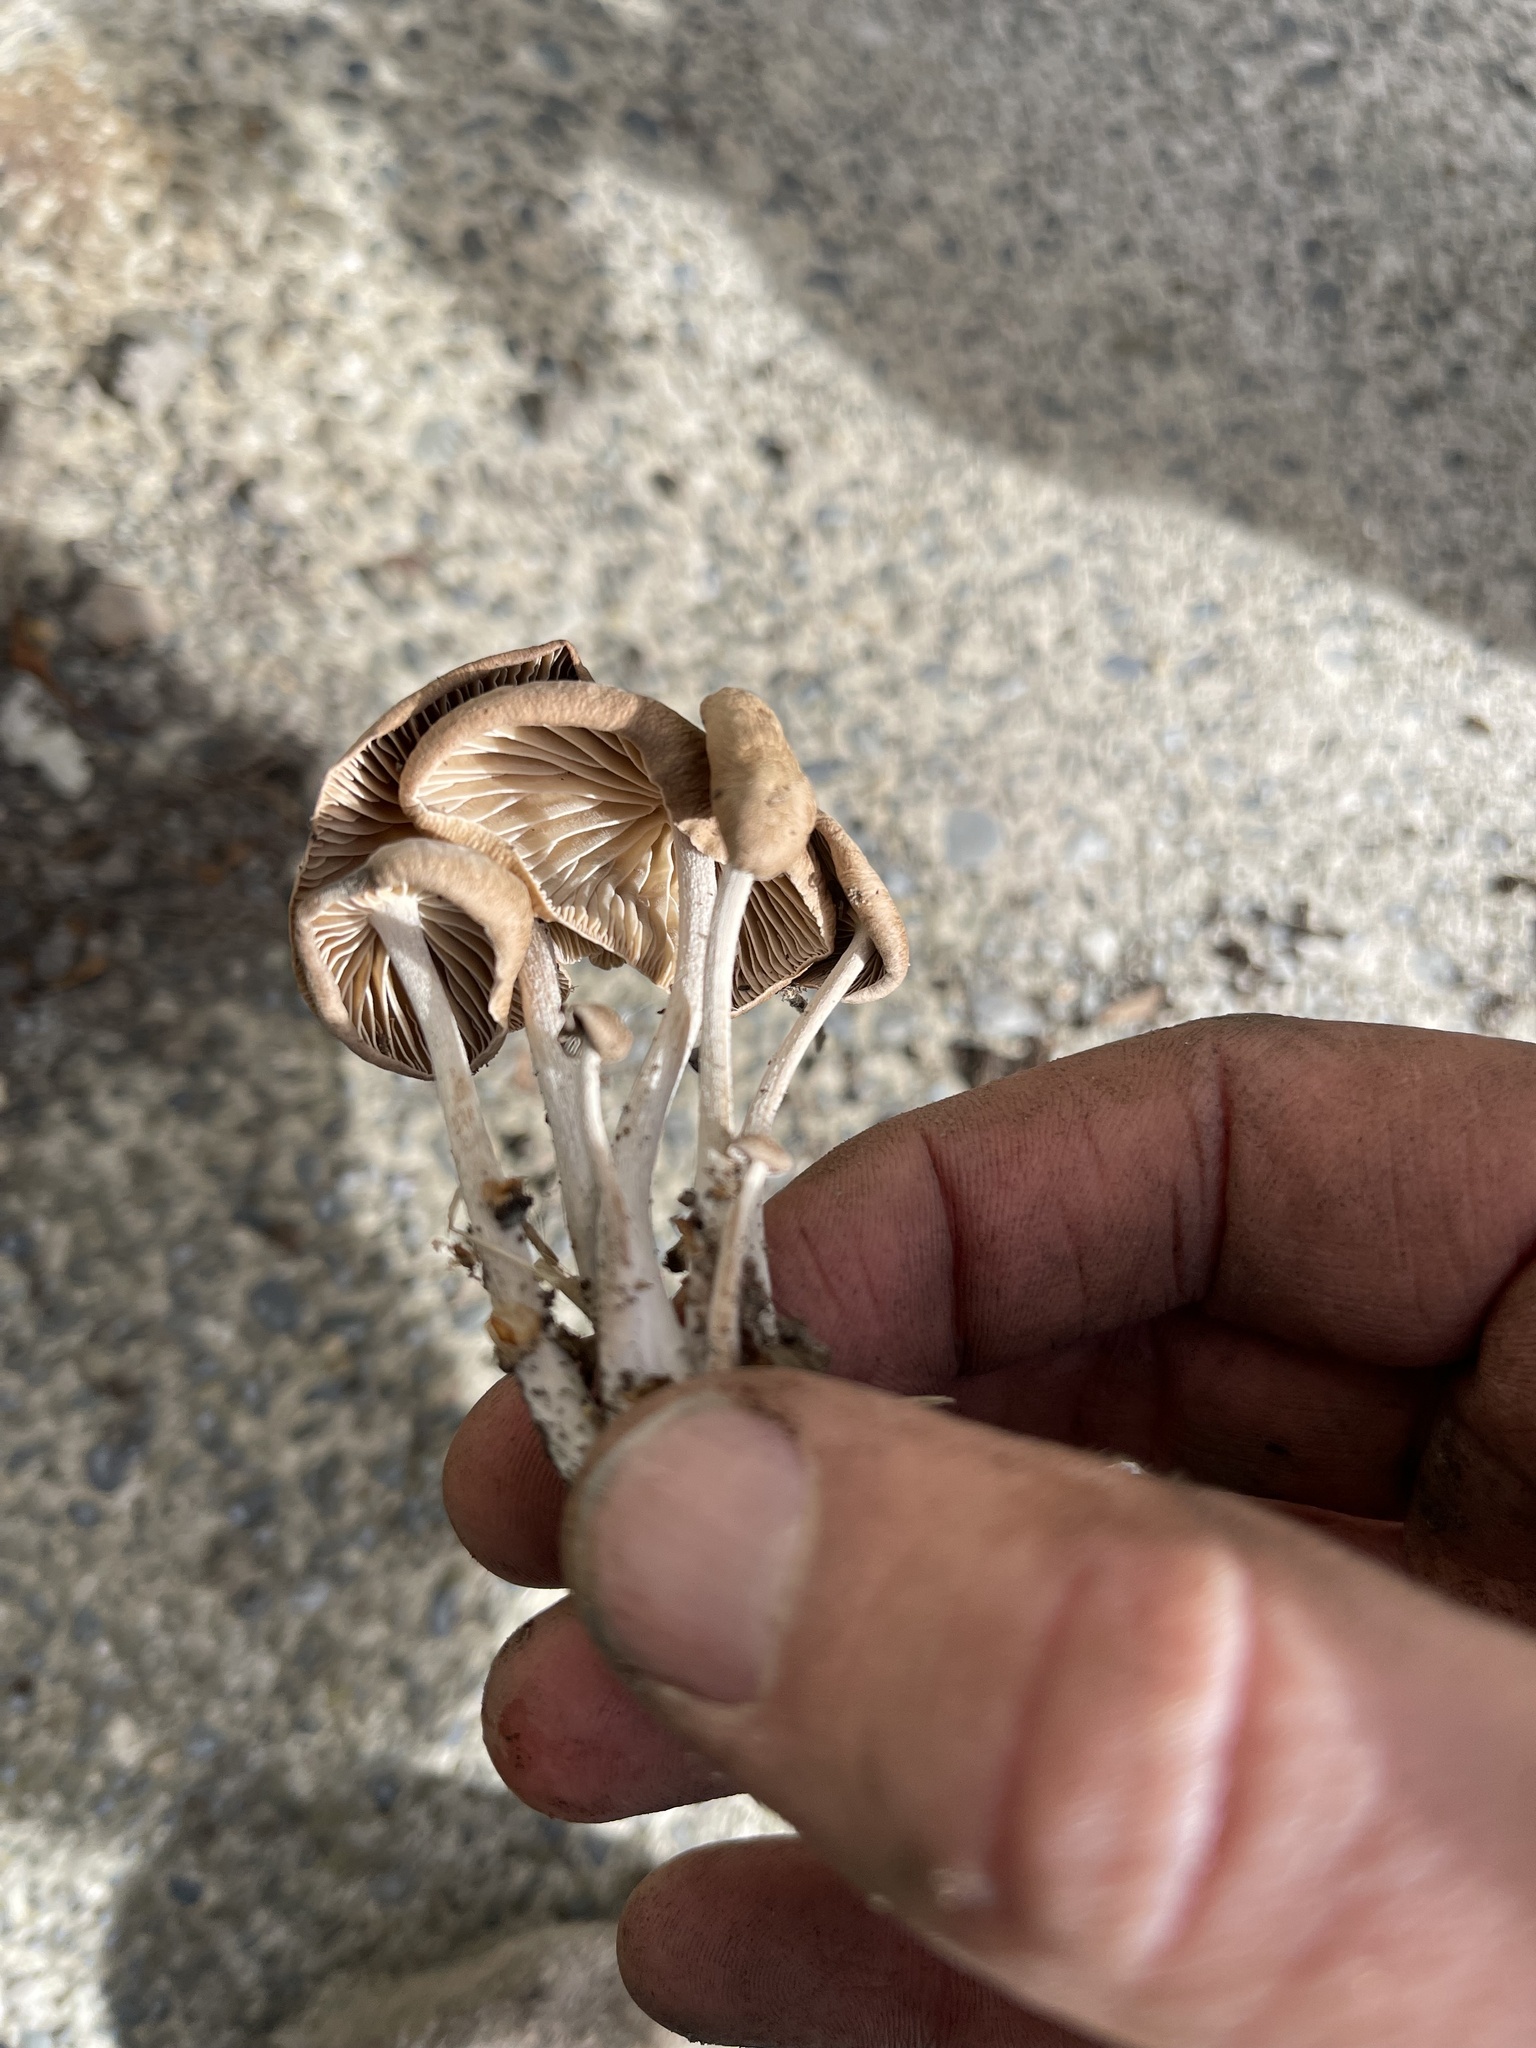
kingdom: Fungi
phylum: Basidiomycota
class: Agaricomycetes
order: Agaricales
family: Omphalotaceae
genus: Collybiopsis
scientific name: Collybiopsis subpruinosa
